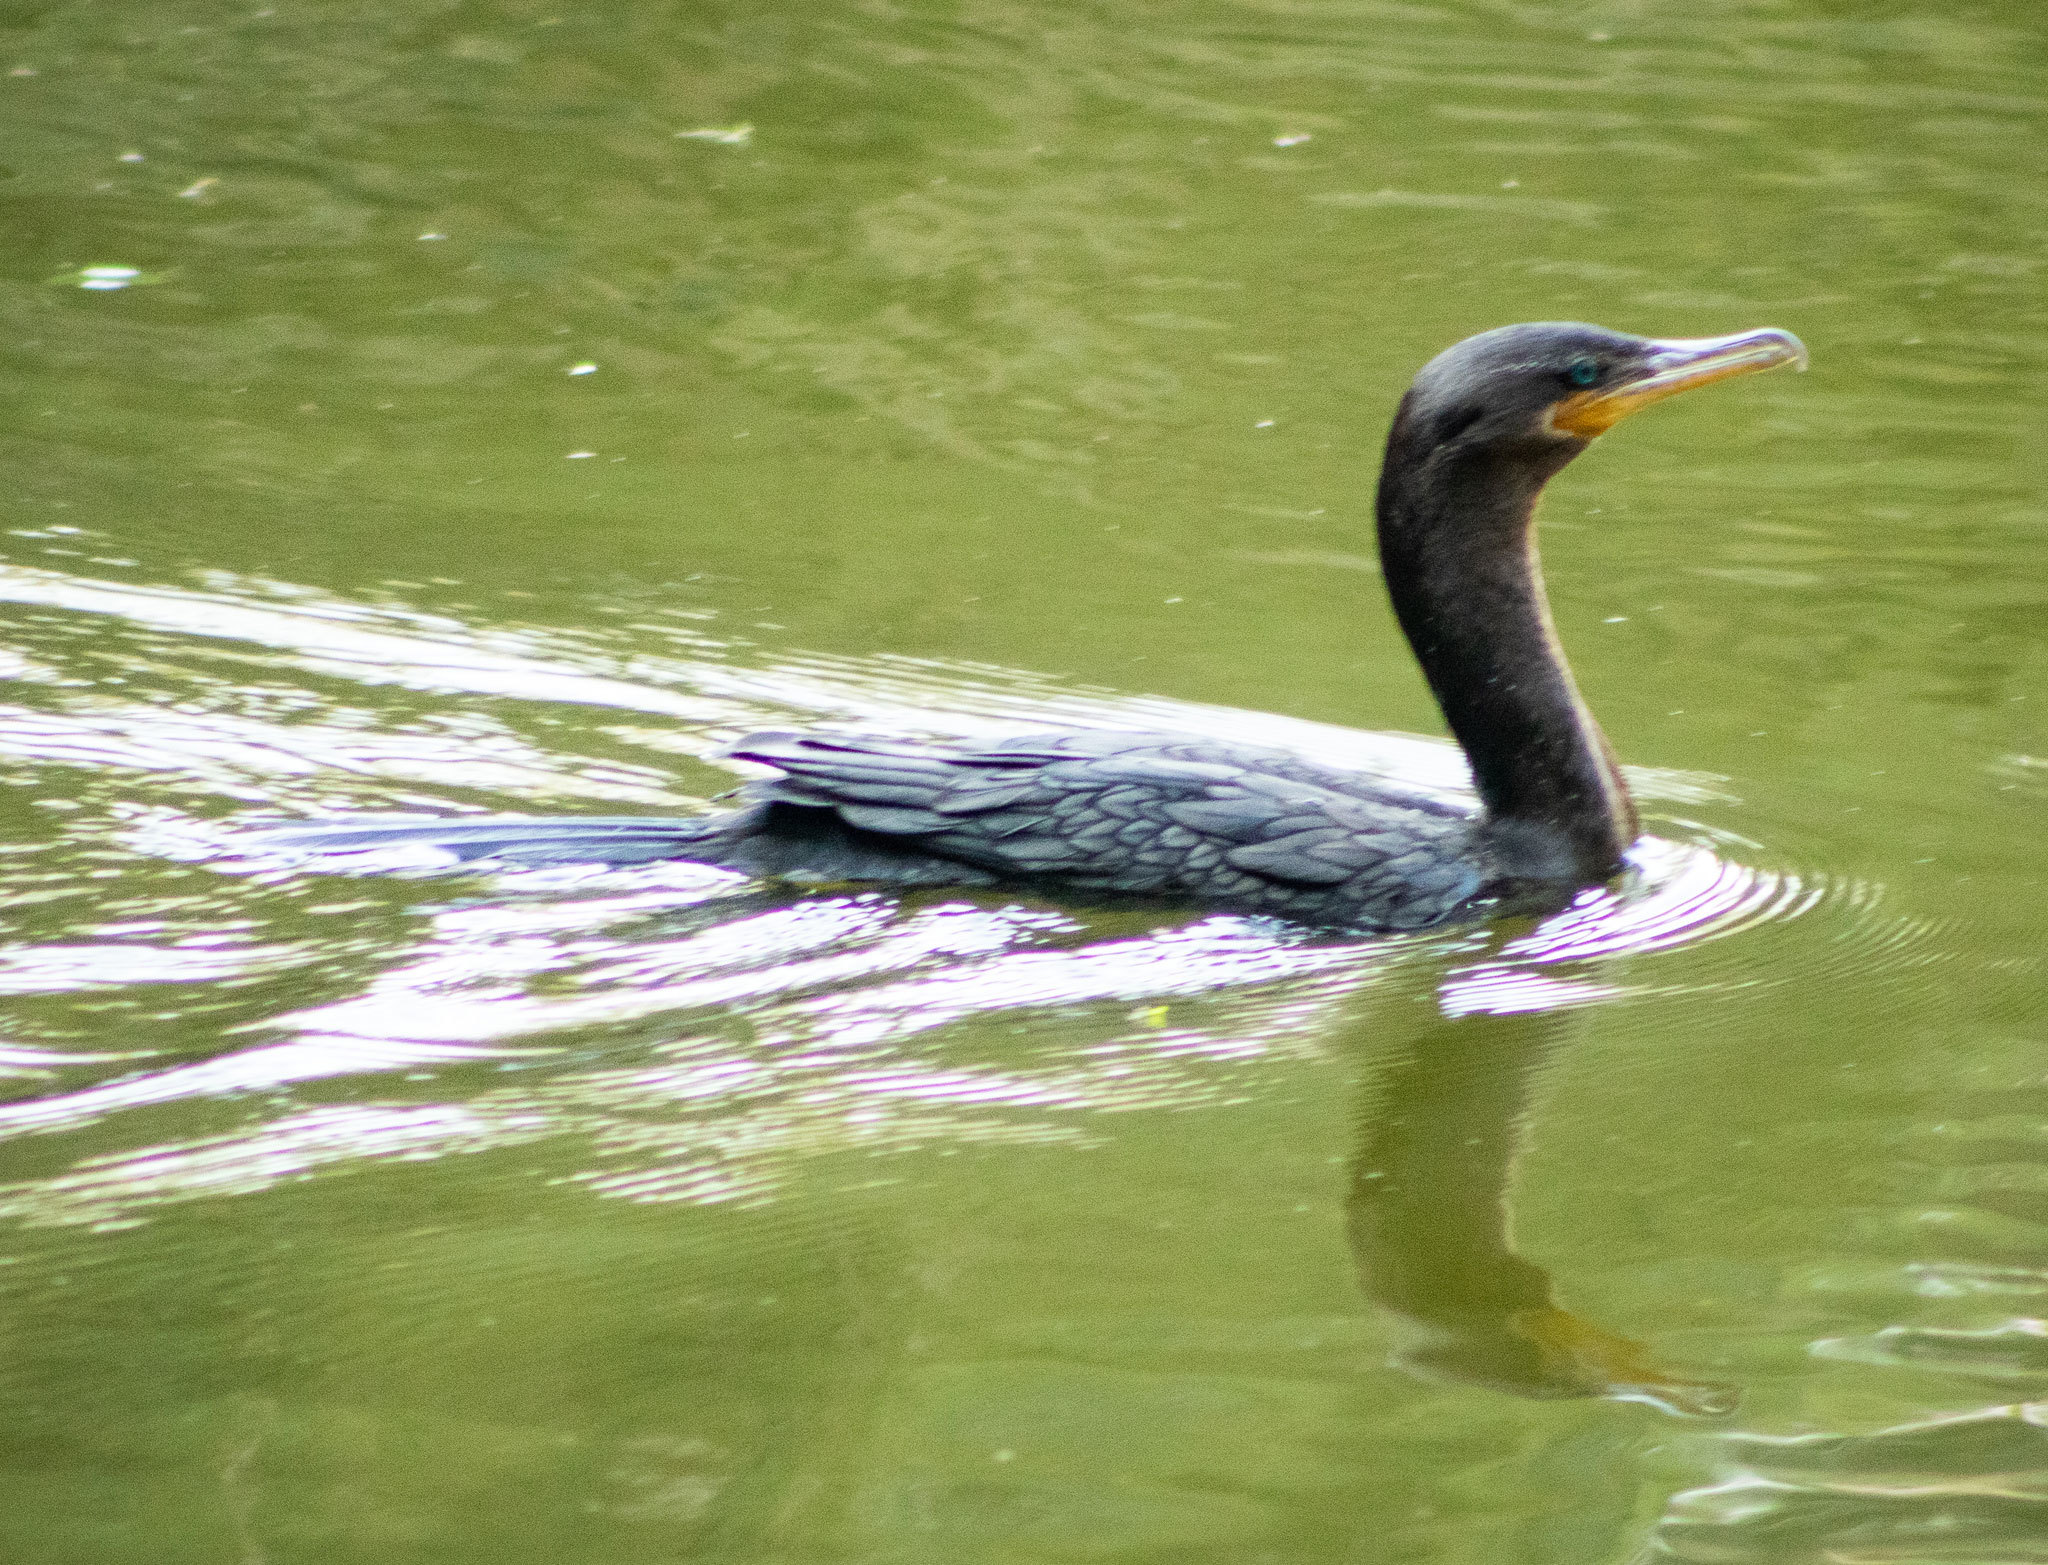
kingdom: Animalia
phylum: Chordata
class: Aves
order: Suliformes
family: Phalacrocoracidae
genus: Phalacrocorax
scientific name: Phalacrocorax brasilianus
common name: Neotropic cormorant
